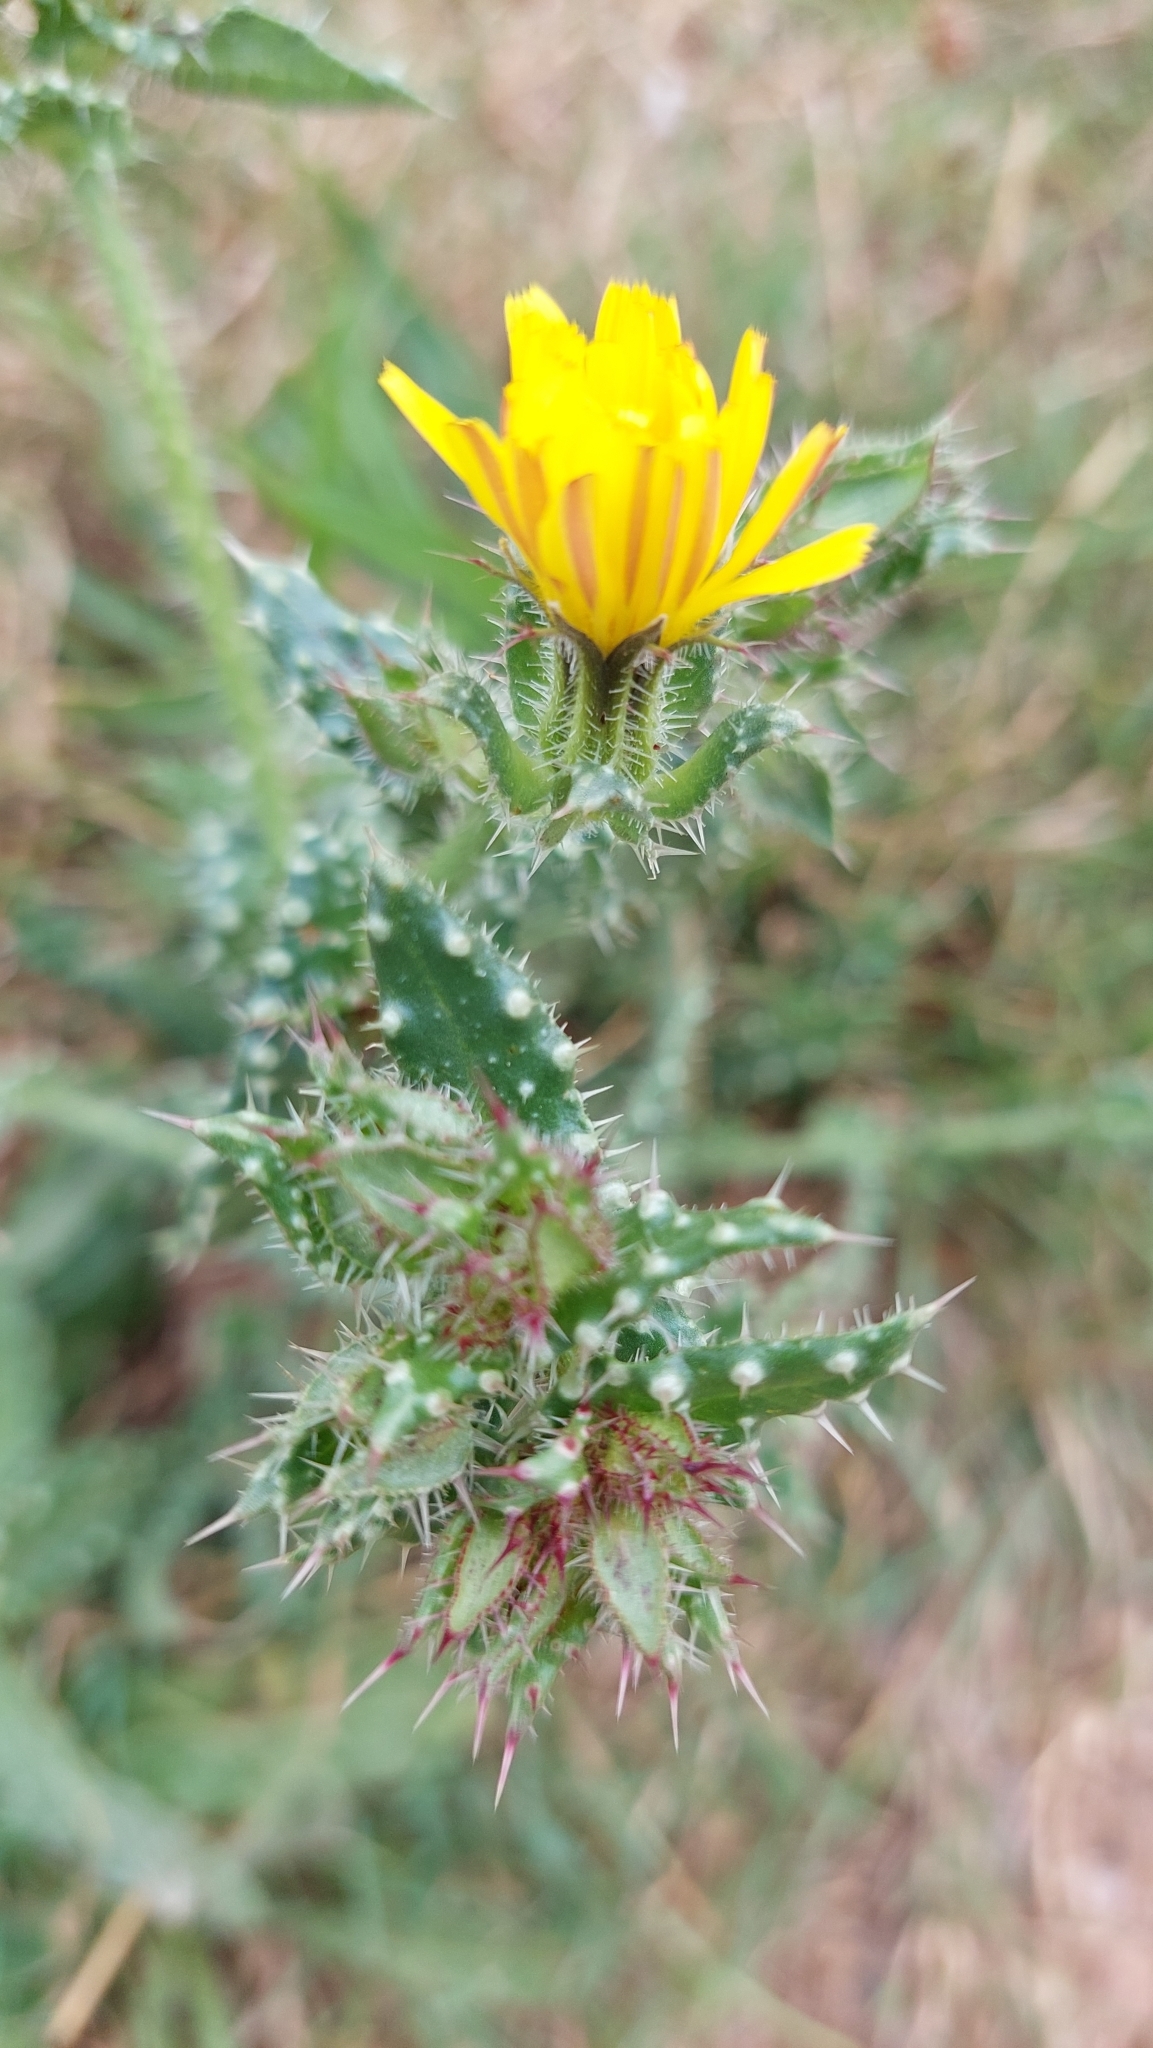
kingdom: Plantae
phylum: Tracheophyta
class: Magnoliopsida
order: Asterales
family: Asteraceae
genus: Helminthotheca
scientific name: Helminthotheca echioides
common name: Ox-tongue
